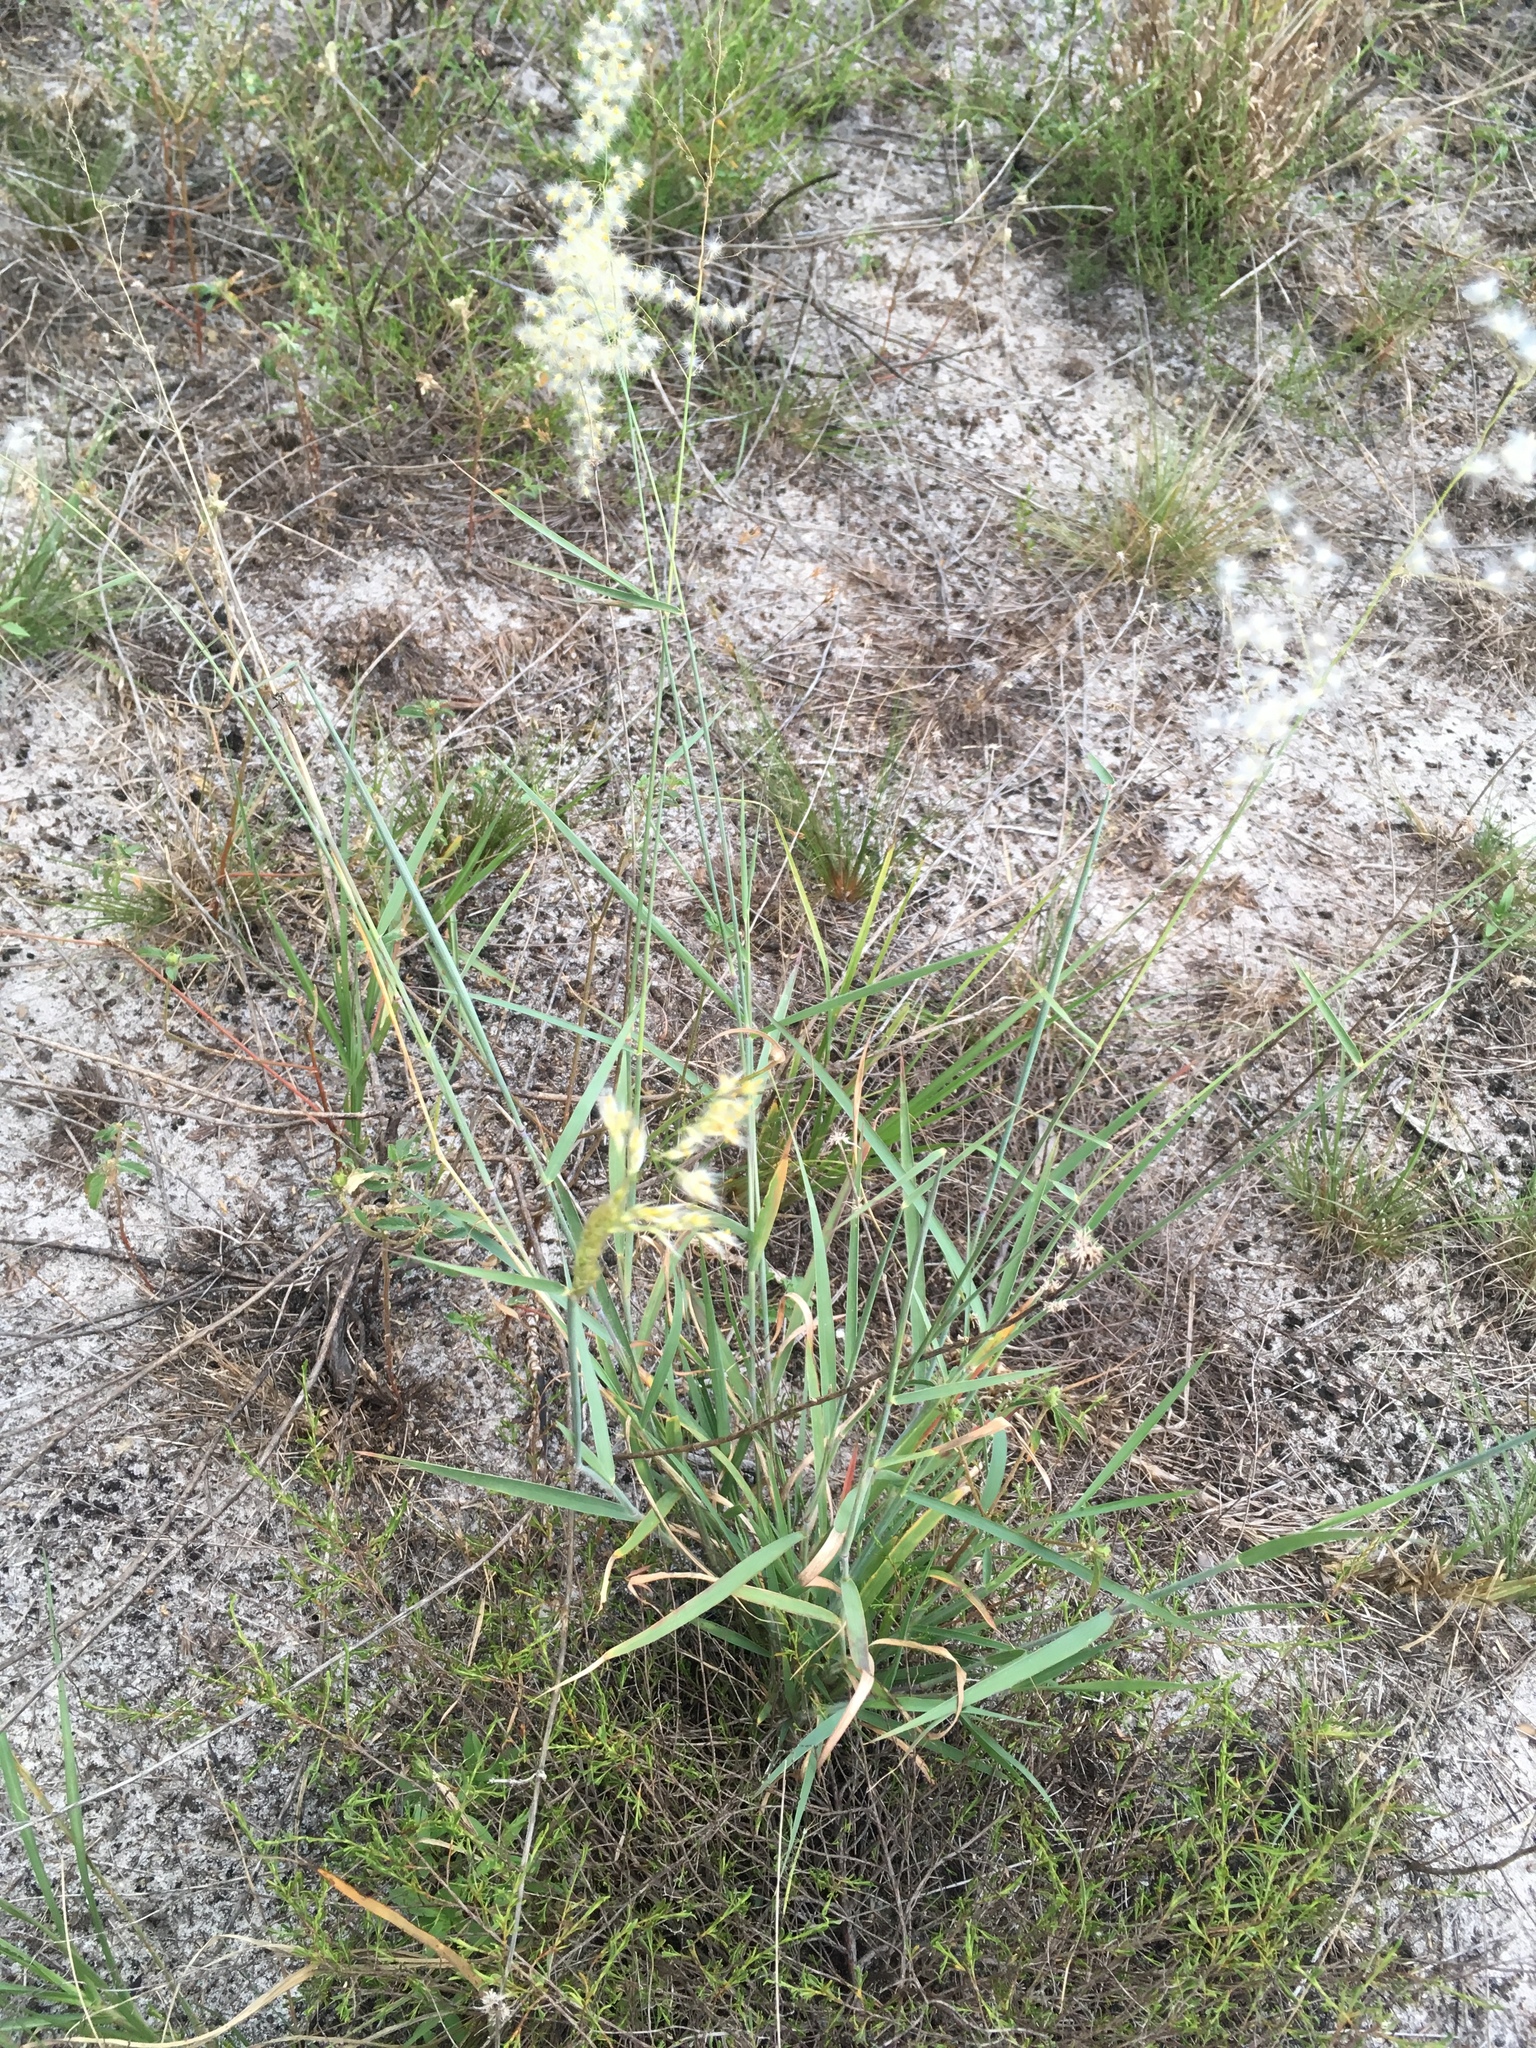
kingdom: Plantae
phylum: Tracheophyta
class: Liliopsida
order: Poales
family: Poaceae
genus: Melinis
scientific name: Melinis repens
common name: Rose natal grass
